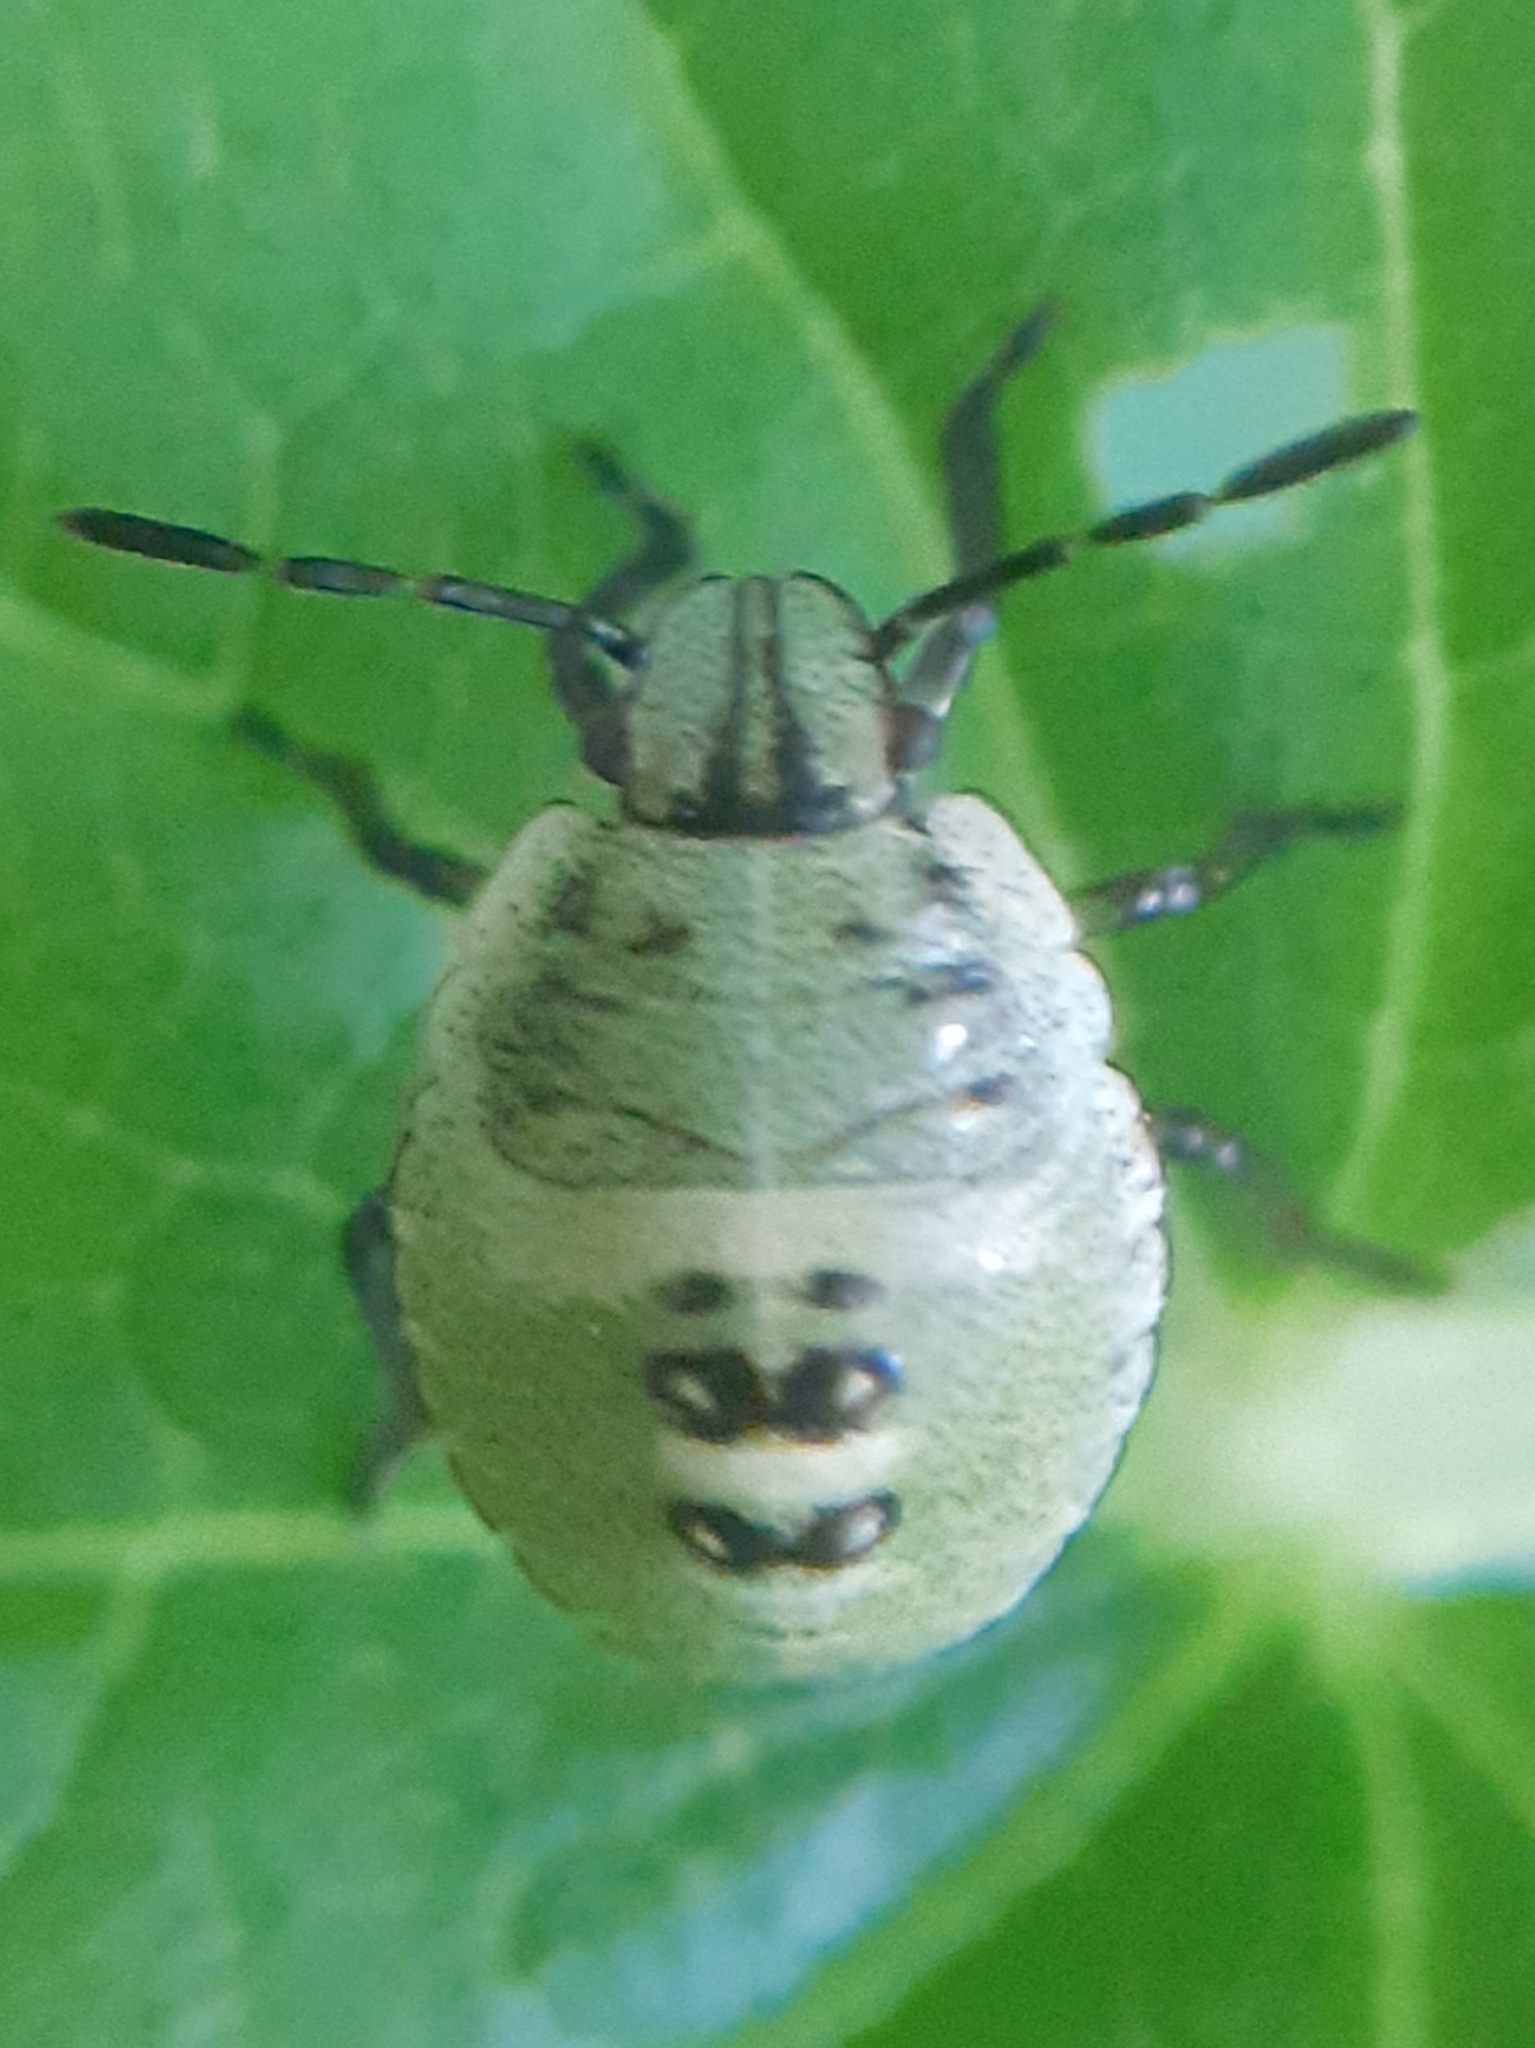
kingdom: Animalia
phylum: Arthropoda
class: Insecta
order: Hemiptera
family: Pentatomidae
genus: Palomena
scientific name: Palomena prasina
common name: Green shieldbug
